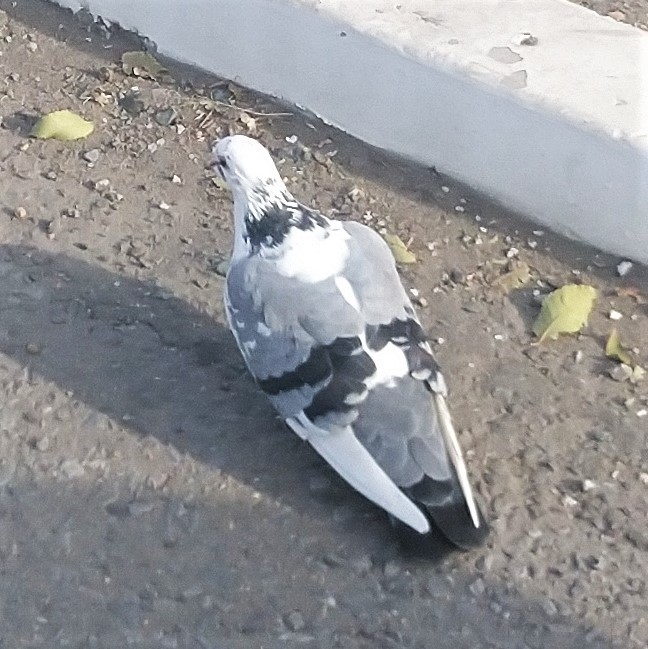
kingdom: Animalia
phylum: Chordata
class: Aves
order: Columbiformes
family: Columbidae
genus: Columba
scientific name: Columba livia
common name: Rock pigeon
